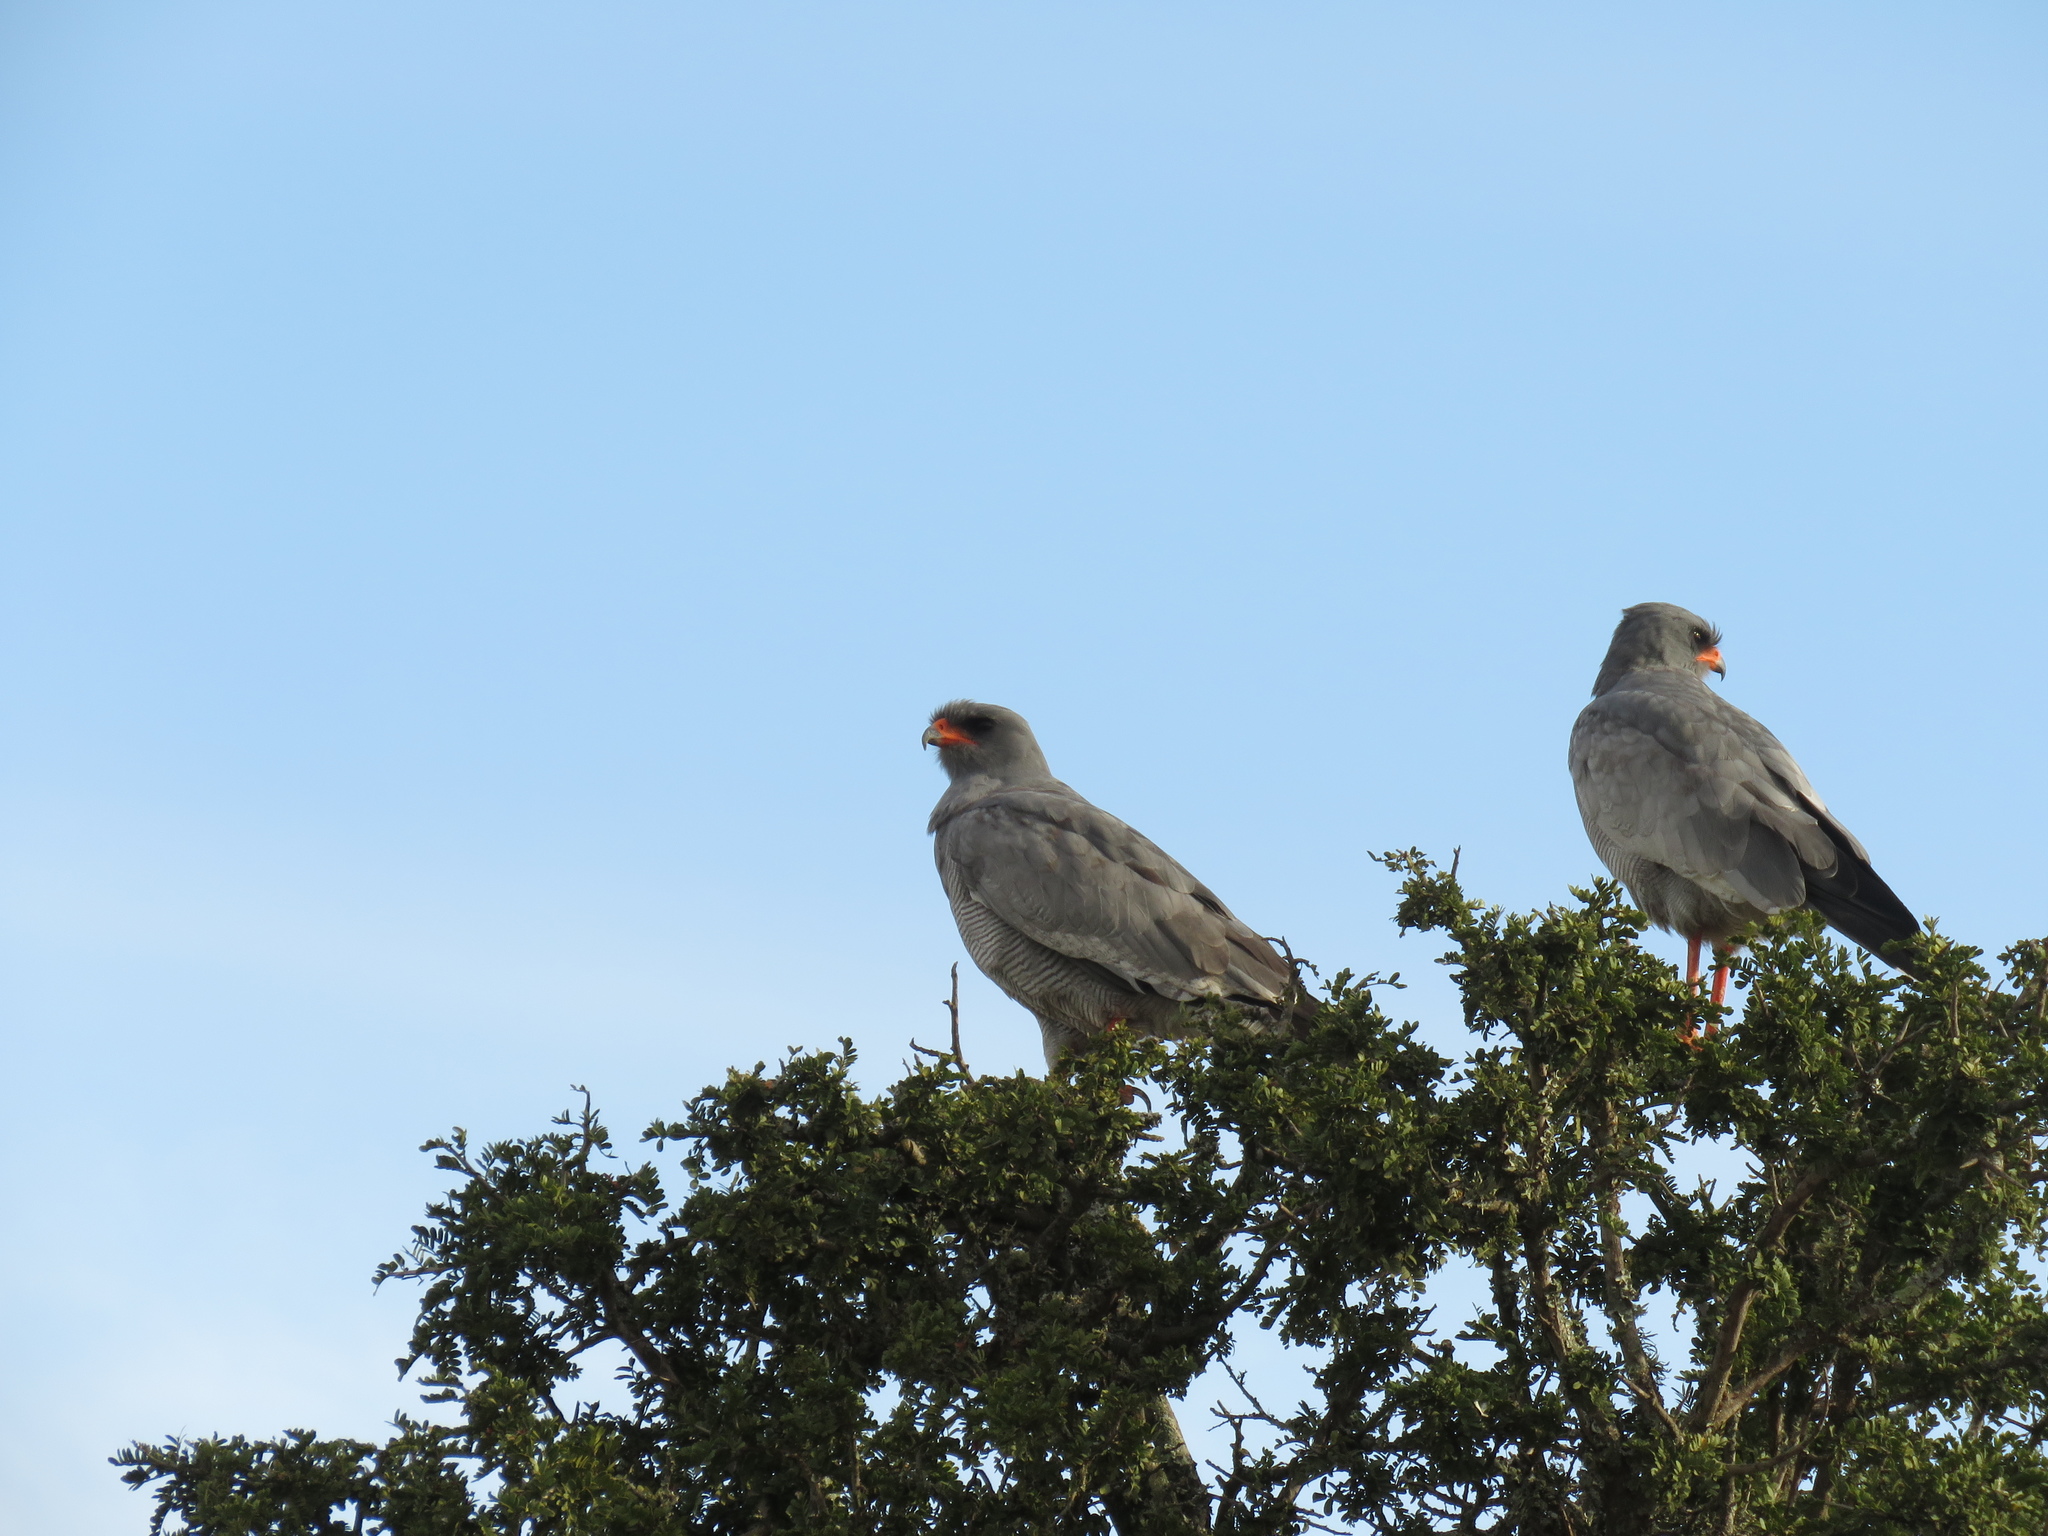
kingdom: Animalia
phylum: Chordata
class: Aves
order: Accipitriformes
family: Accipitridae
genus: Melierax
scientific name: Melierax canorus
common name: Pale chanting-goshawk
